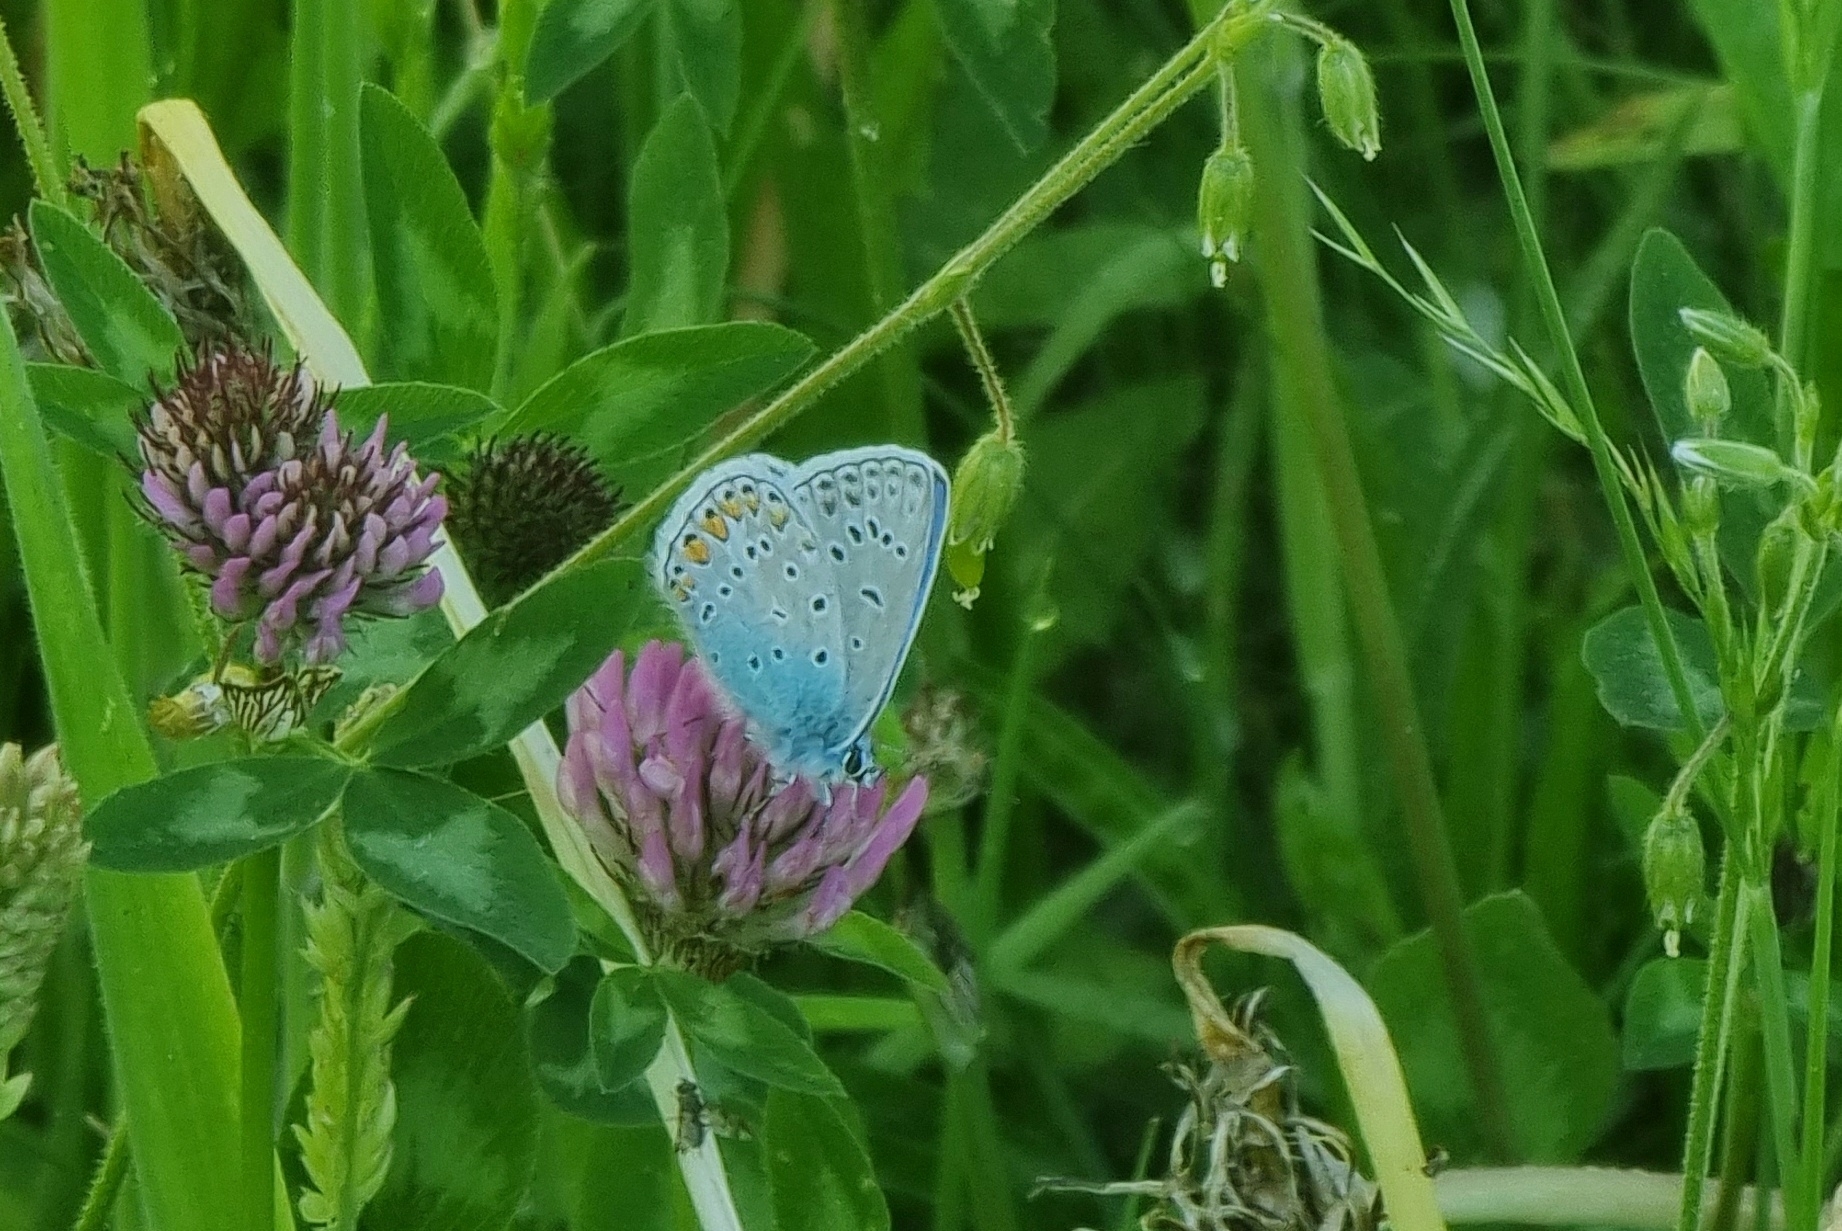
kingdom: Animalia
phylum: Arthropoda
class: Insecta
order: Lepidoptera
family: Lycaenidae
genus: Polyommatus
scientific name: Polyommatus icarus
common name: Common blue
